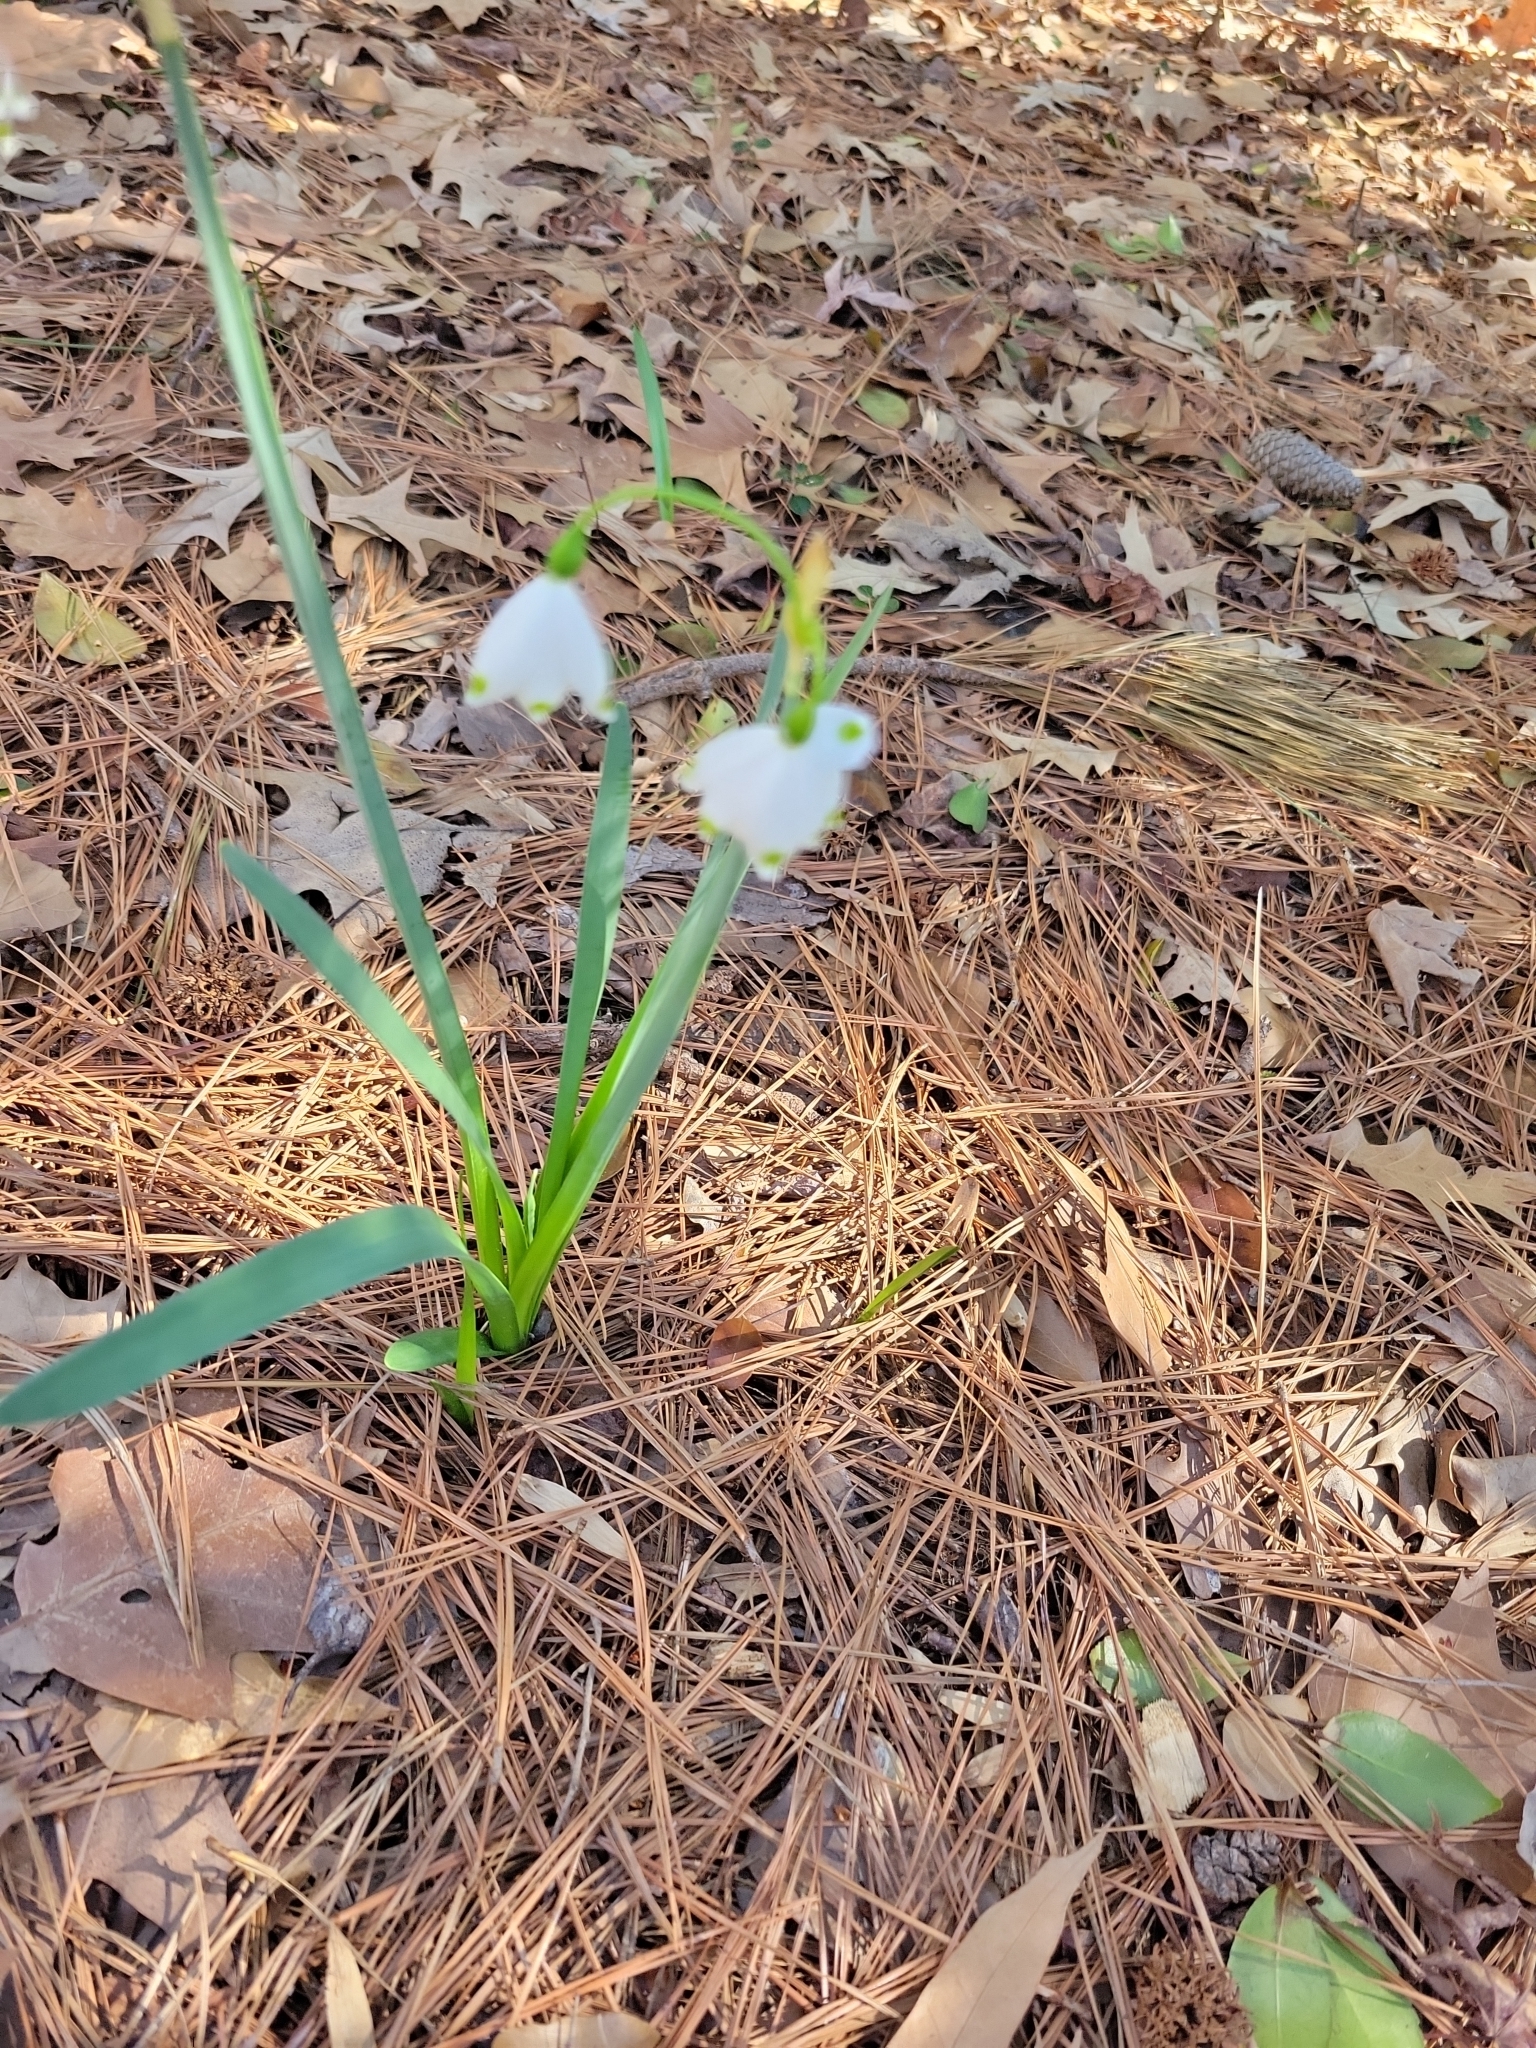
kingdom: Plantae
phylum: Tracheophyta
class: Liliopsida
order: Asparagales
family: Amaryllidaceae
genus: Leucojum
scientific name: Leucojum aestivum
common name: Summer snowflake
